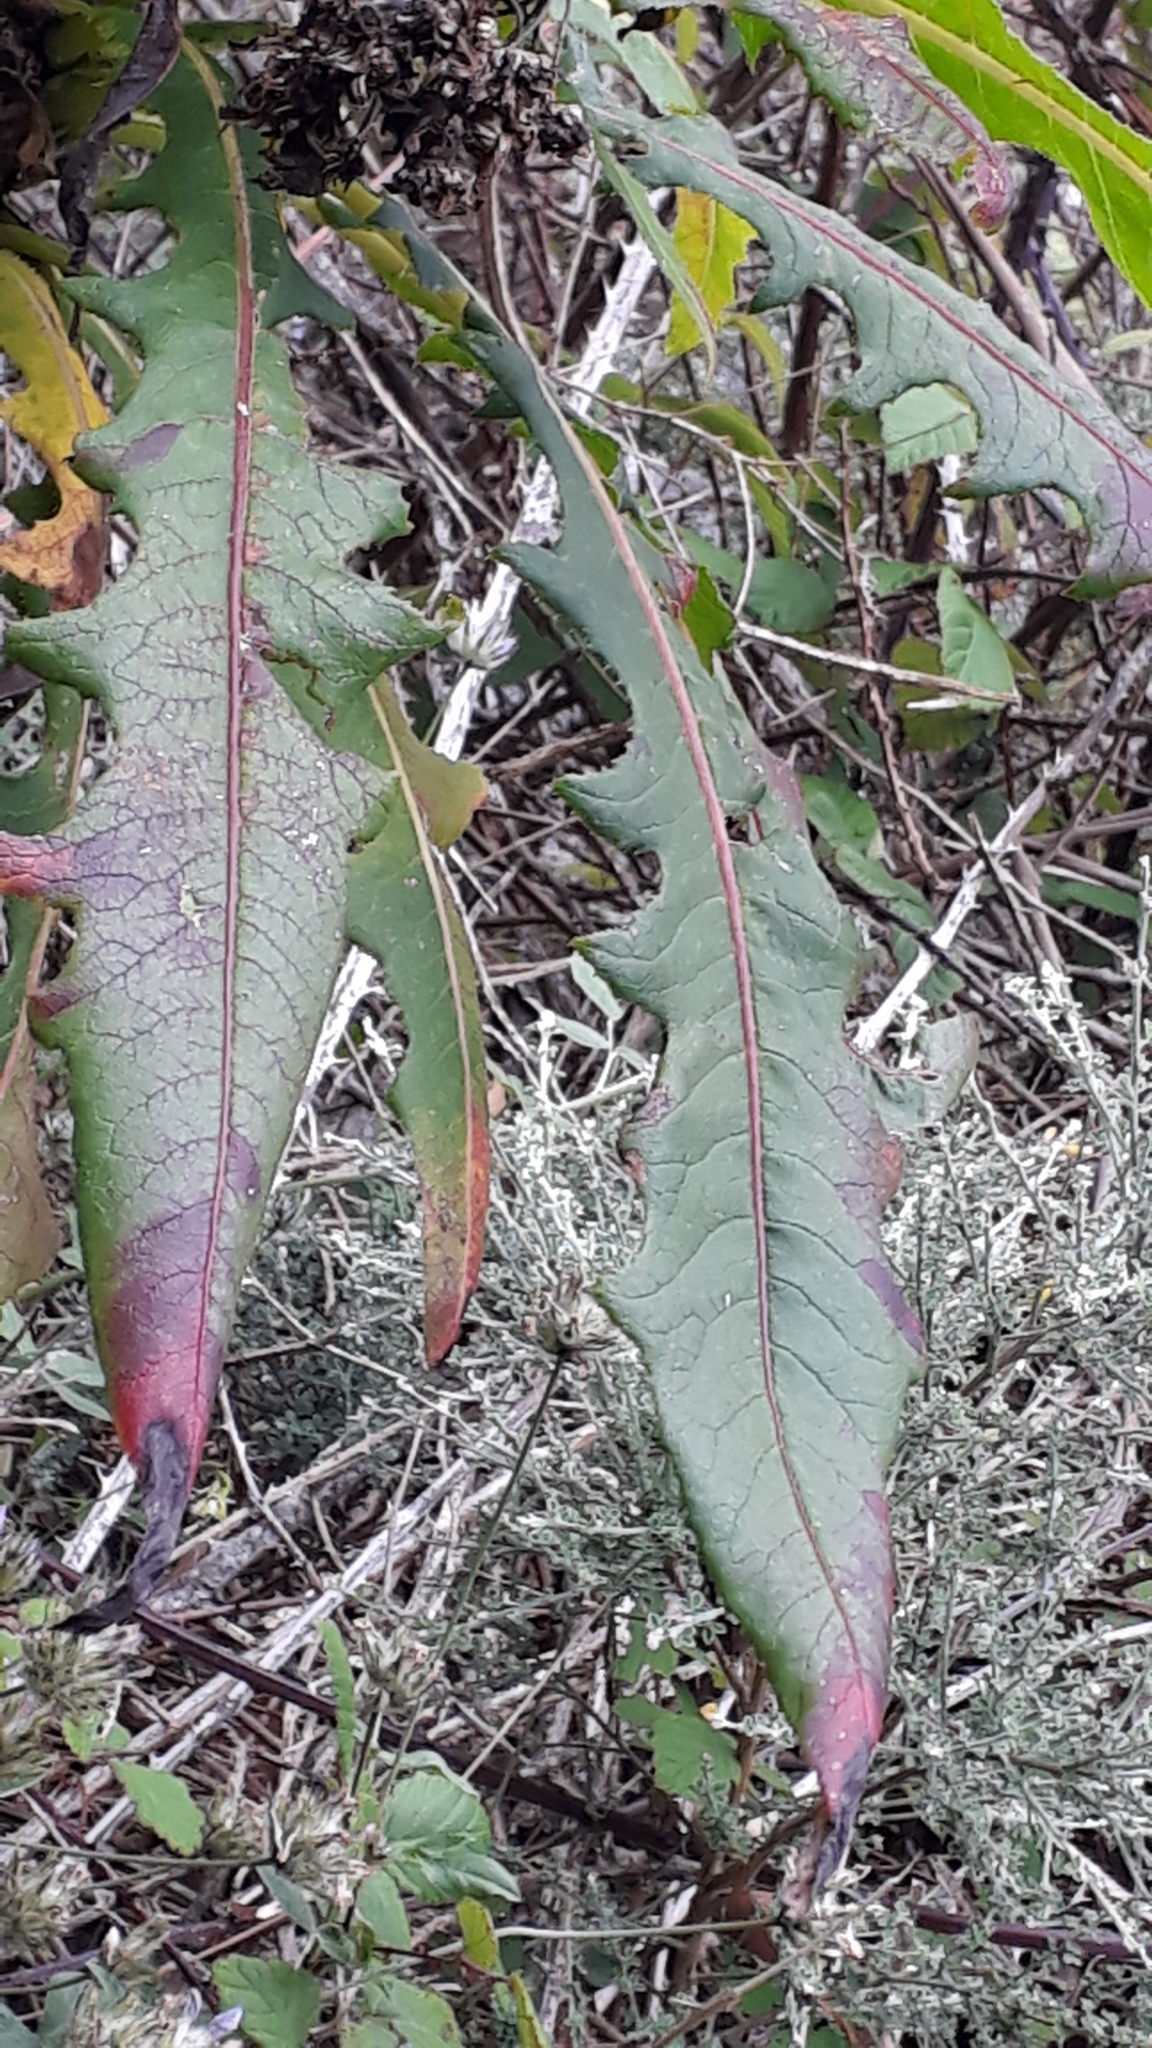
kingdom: Plantae
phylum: Tracheophyta
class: Magnoliopsida
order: Asterales
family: Asteraceae
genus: Sonchus
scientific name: Sonchus congestus
